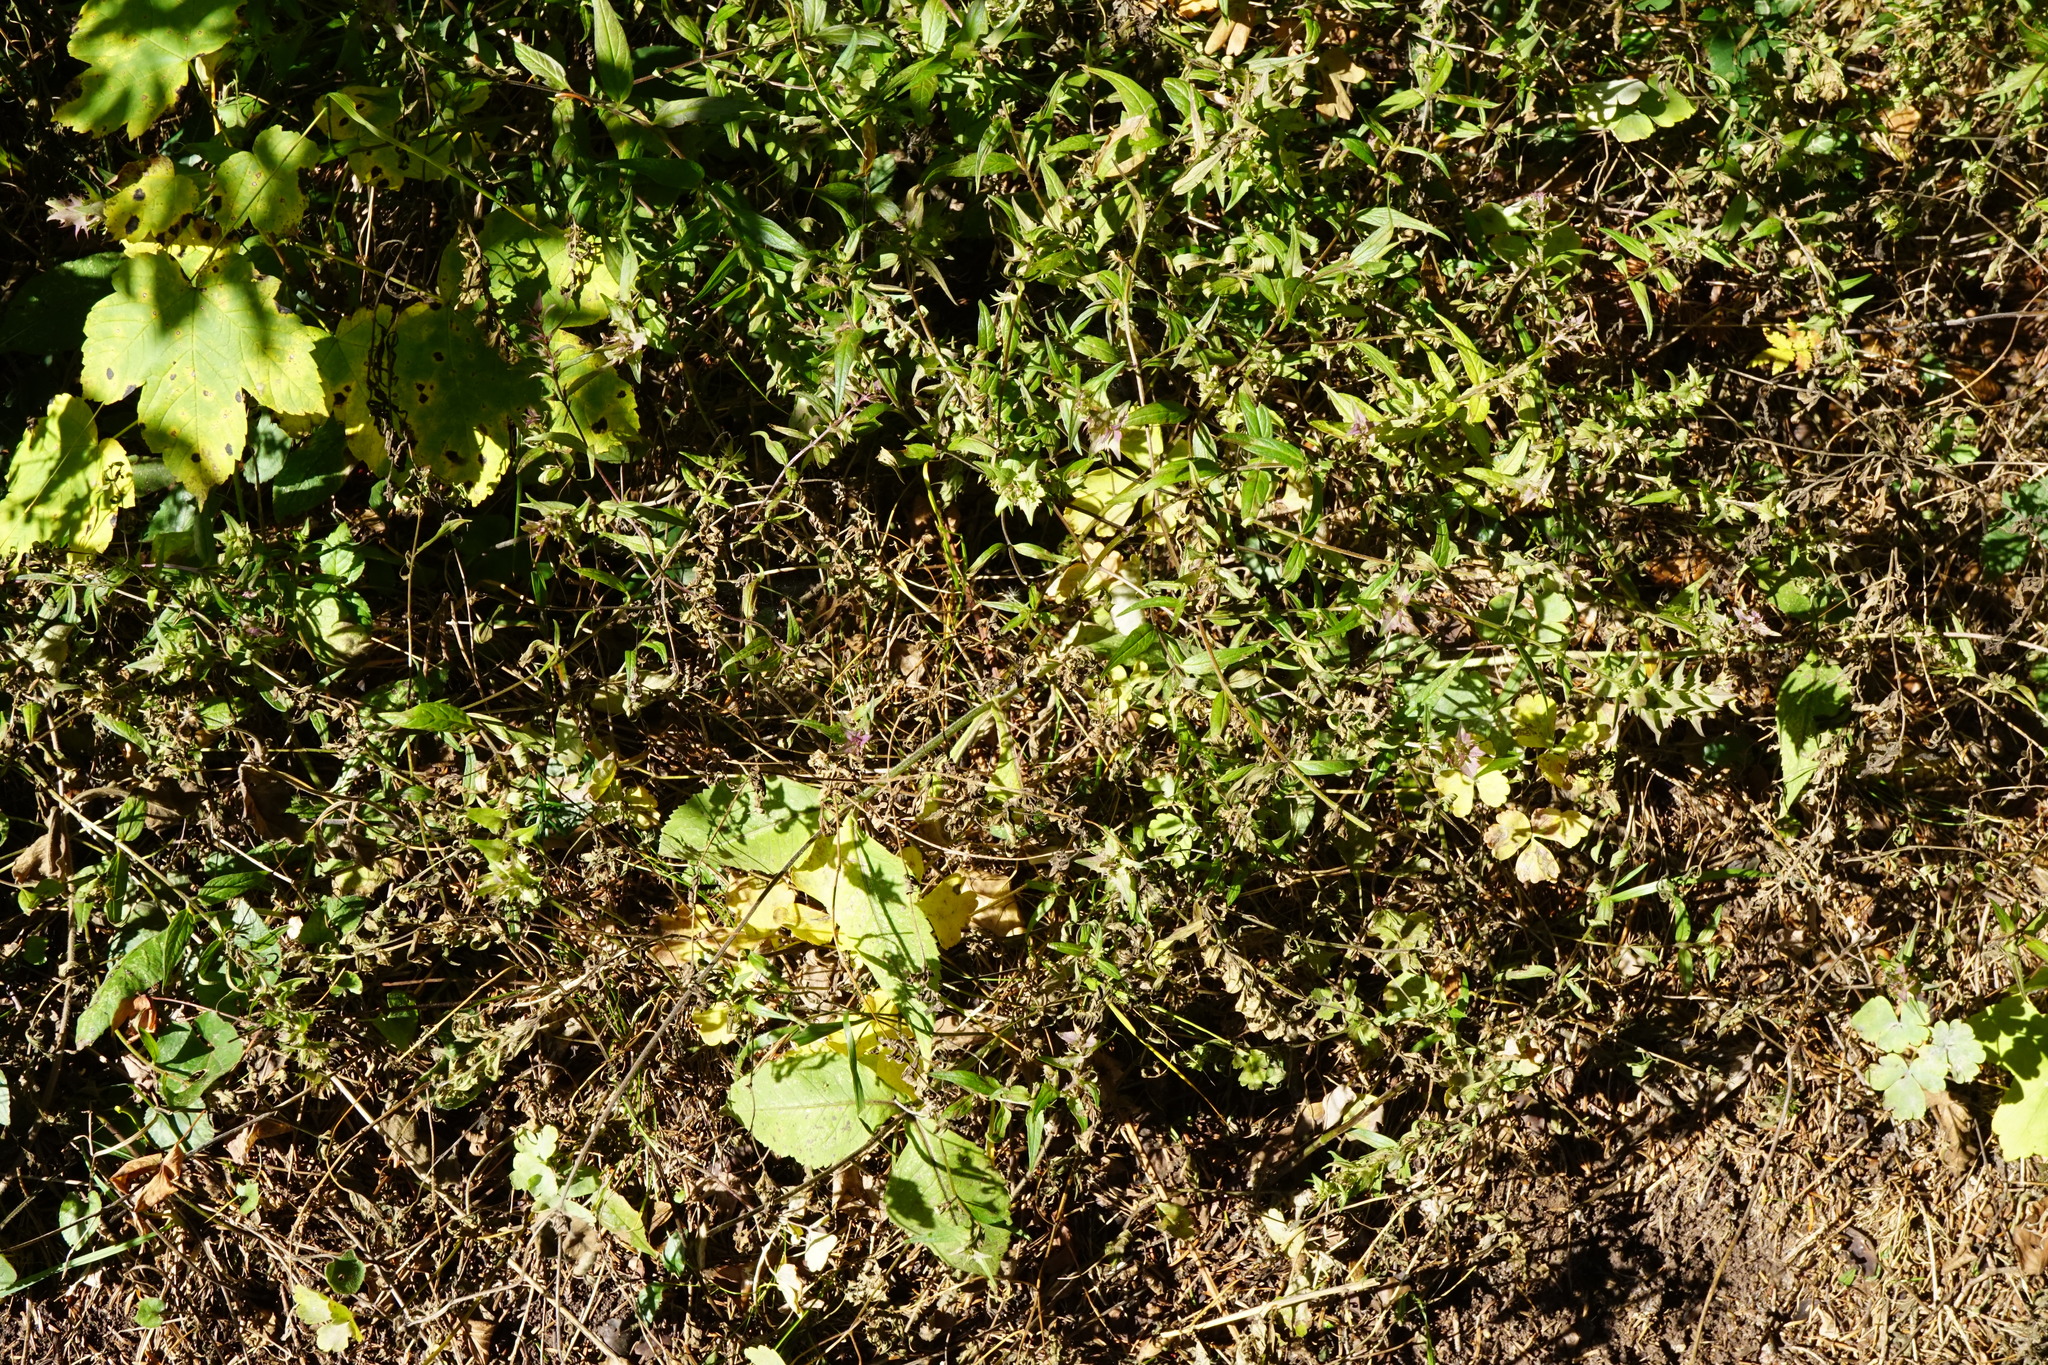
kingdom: Plantae
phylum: Tracheophyta
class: Magnoliopsida
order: Lamiales
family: Orobanchaceae
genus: Melampyrum
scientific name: Melampyrum subalpinum
